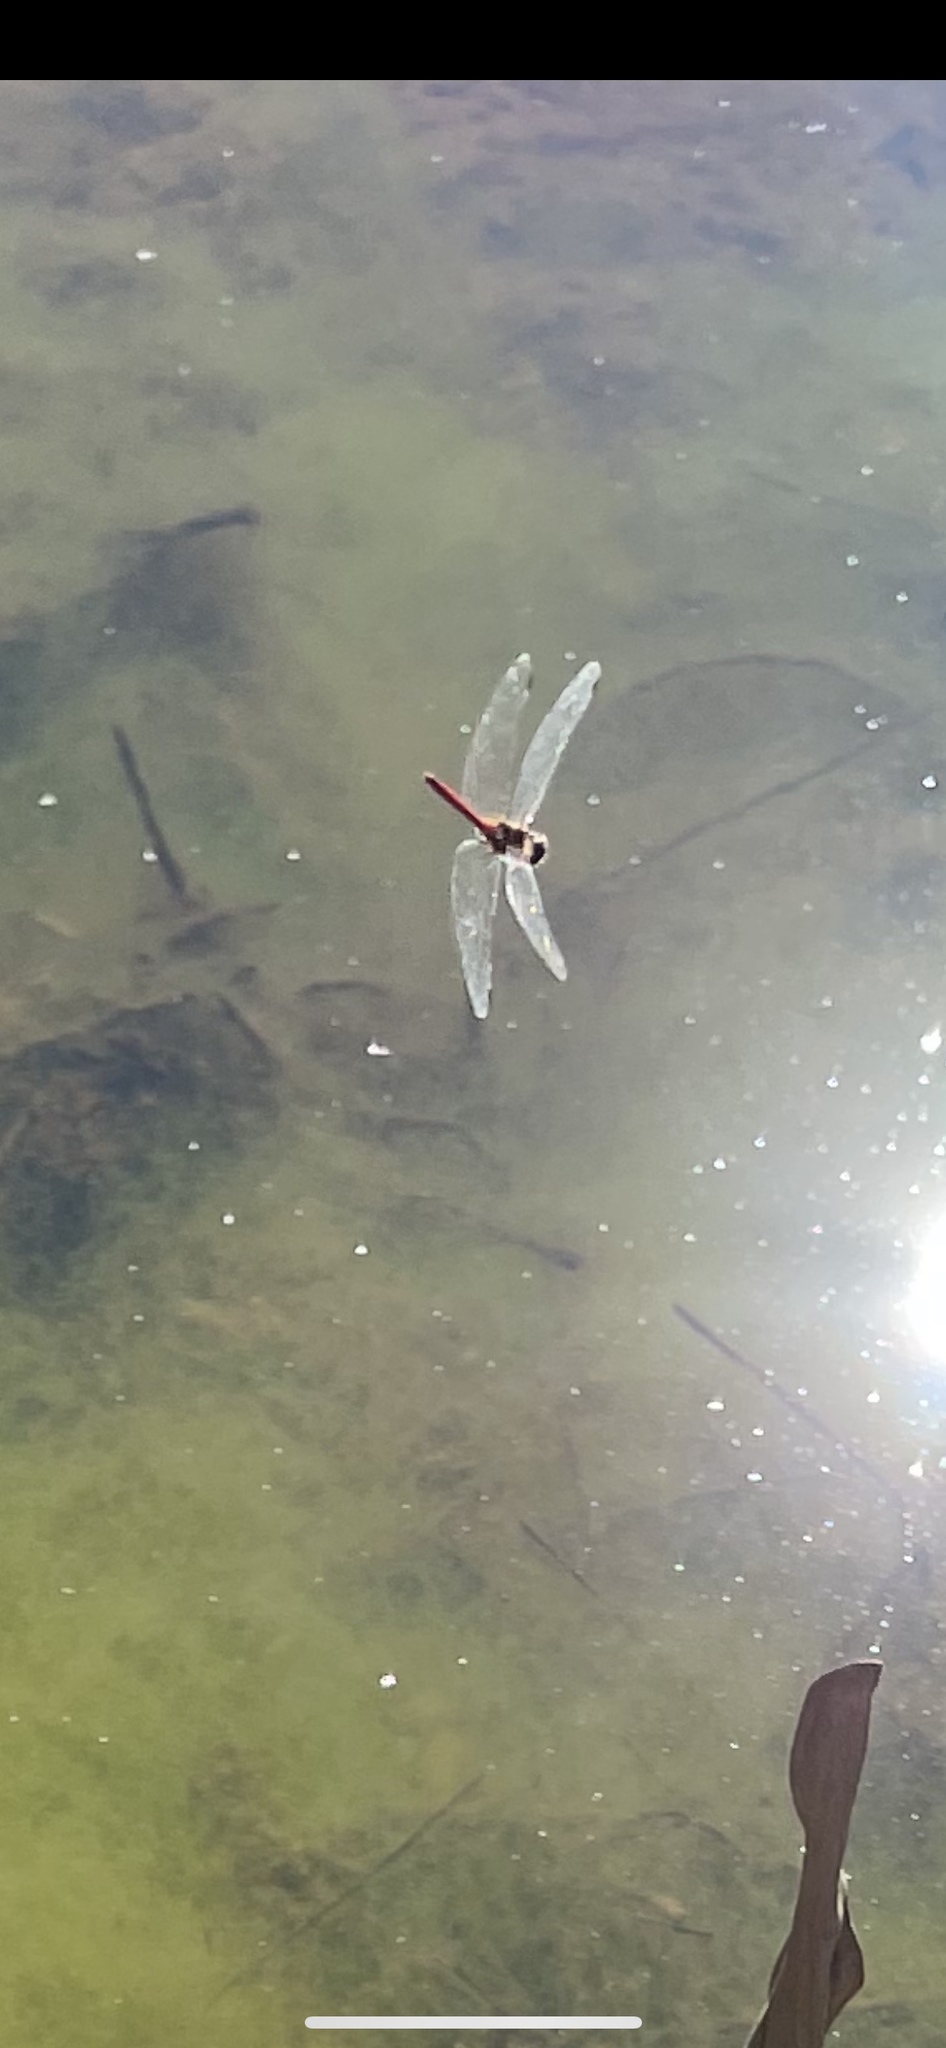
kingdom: Animalia
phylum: Arthropoda
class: Insecta
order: Odonata
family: Libellulidae
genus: Sympetrum
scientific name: Sympetrum vicinum
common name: Autumn meadowhawk
